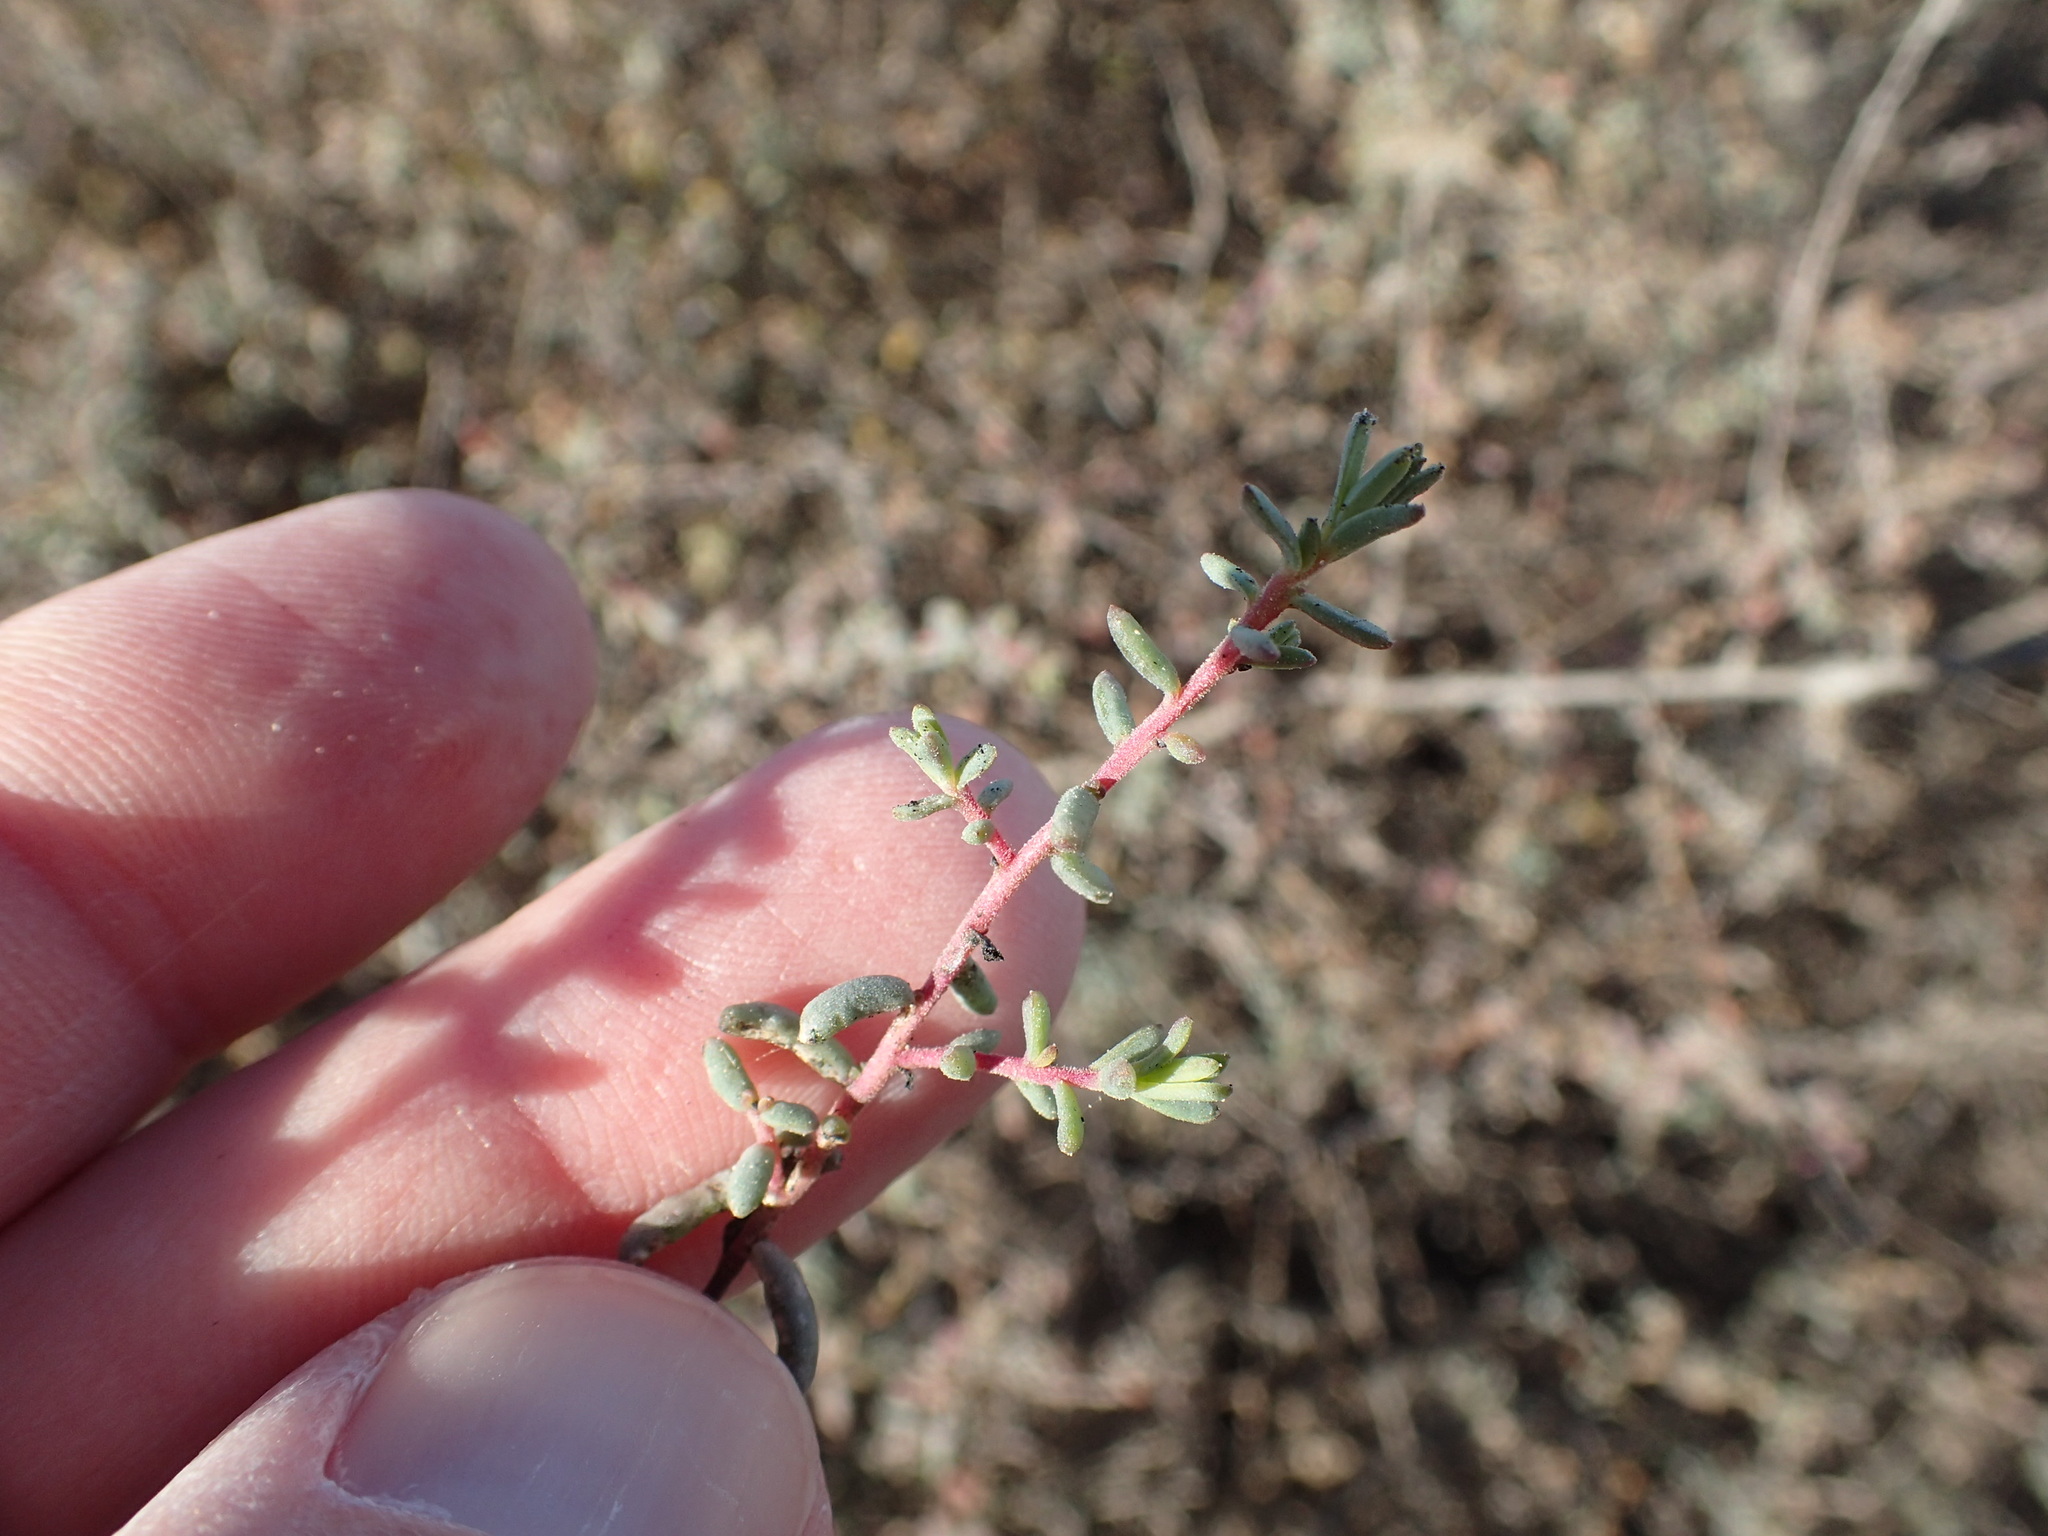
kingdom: Plantae
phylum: Tracheophyta
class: Magnoliopsida
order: Caryophyllales
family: Amaranthaceae
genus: Suaeda
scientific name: Suaeda nigra
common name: Bush seepweed
